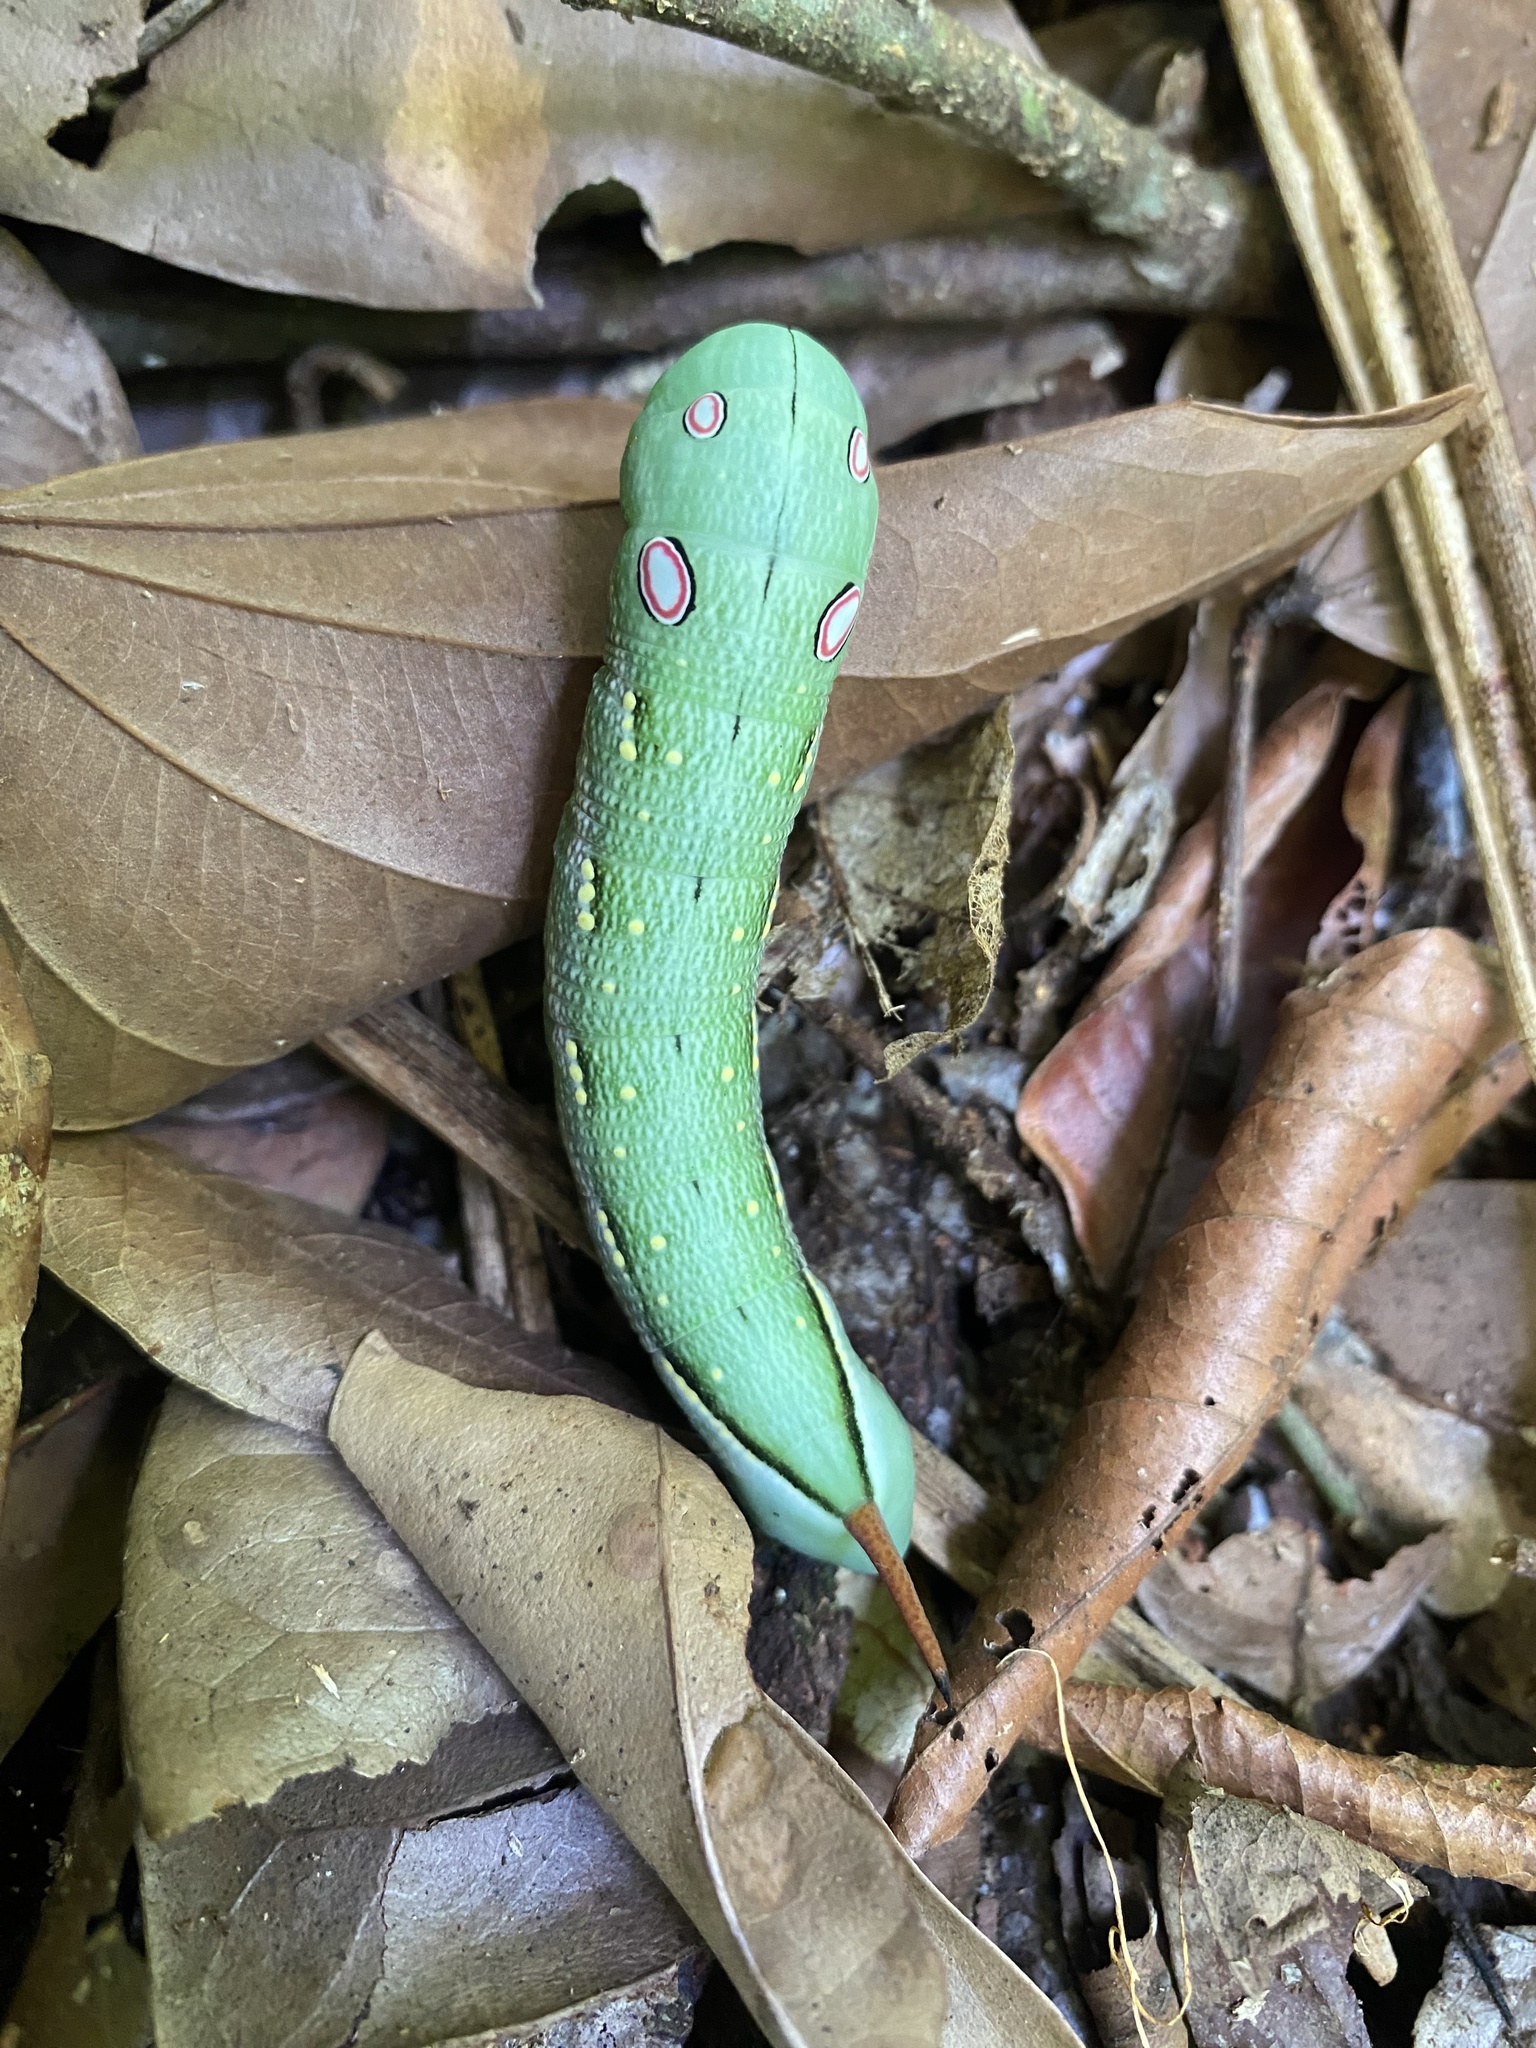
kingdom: Animalia
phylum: Arthropoda
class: Insecta
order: Lepidoptera
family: Sphingidae
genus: Xylophanes
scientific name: Xylophanes chiron
